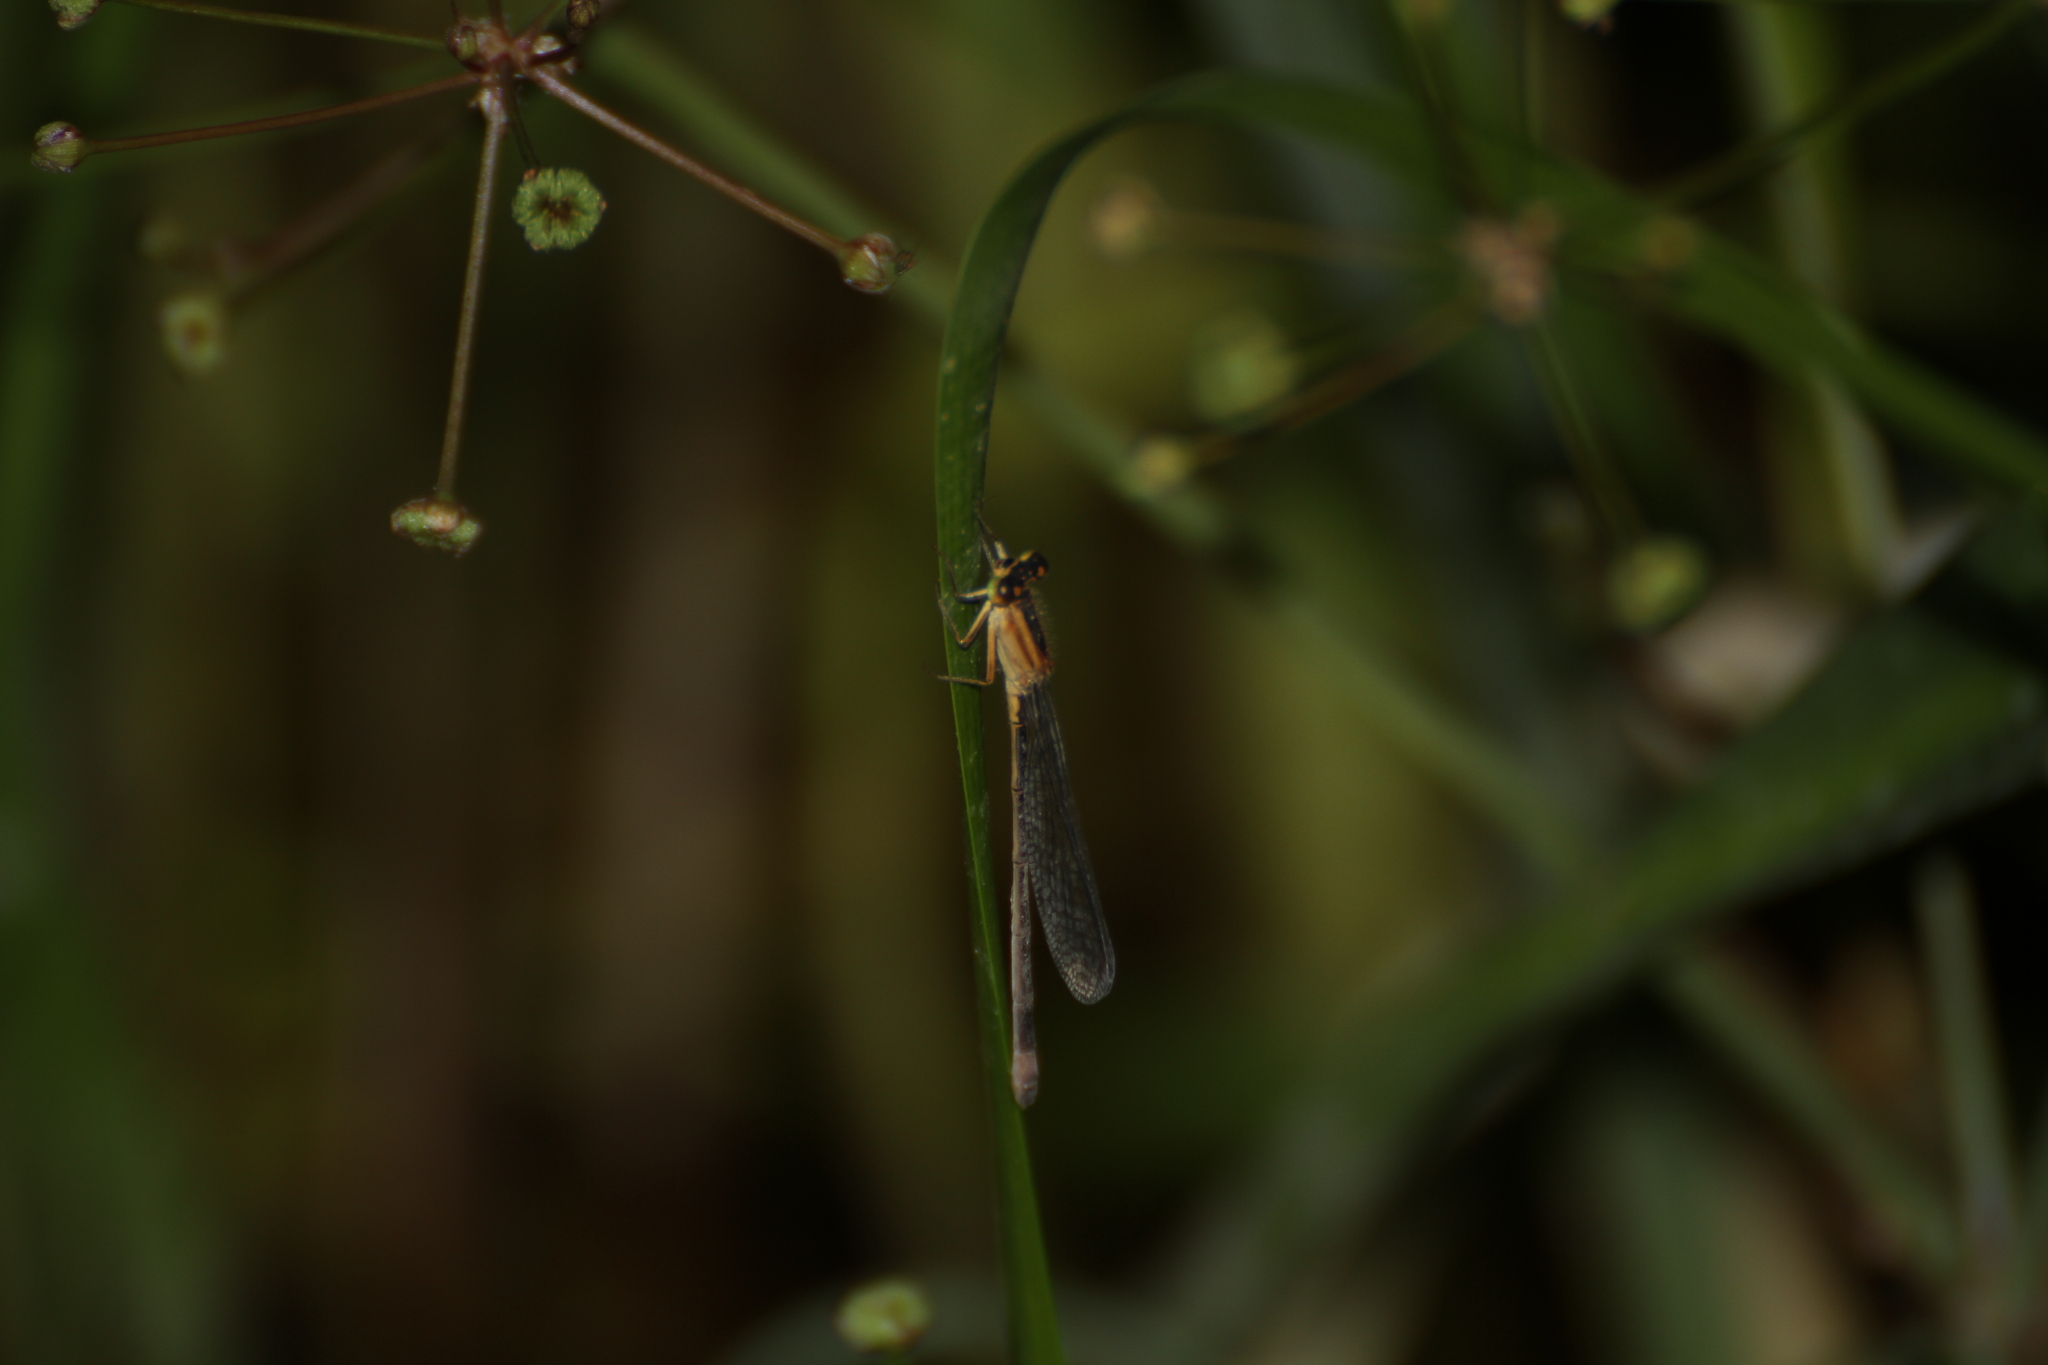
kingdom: Animalia
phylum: Arthropoda
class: Insecta
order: Odonata
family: Coenagrionidae
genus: Ischnura
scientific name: Ischnura elegans
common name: Blue-tailed damselfly
